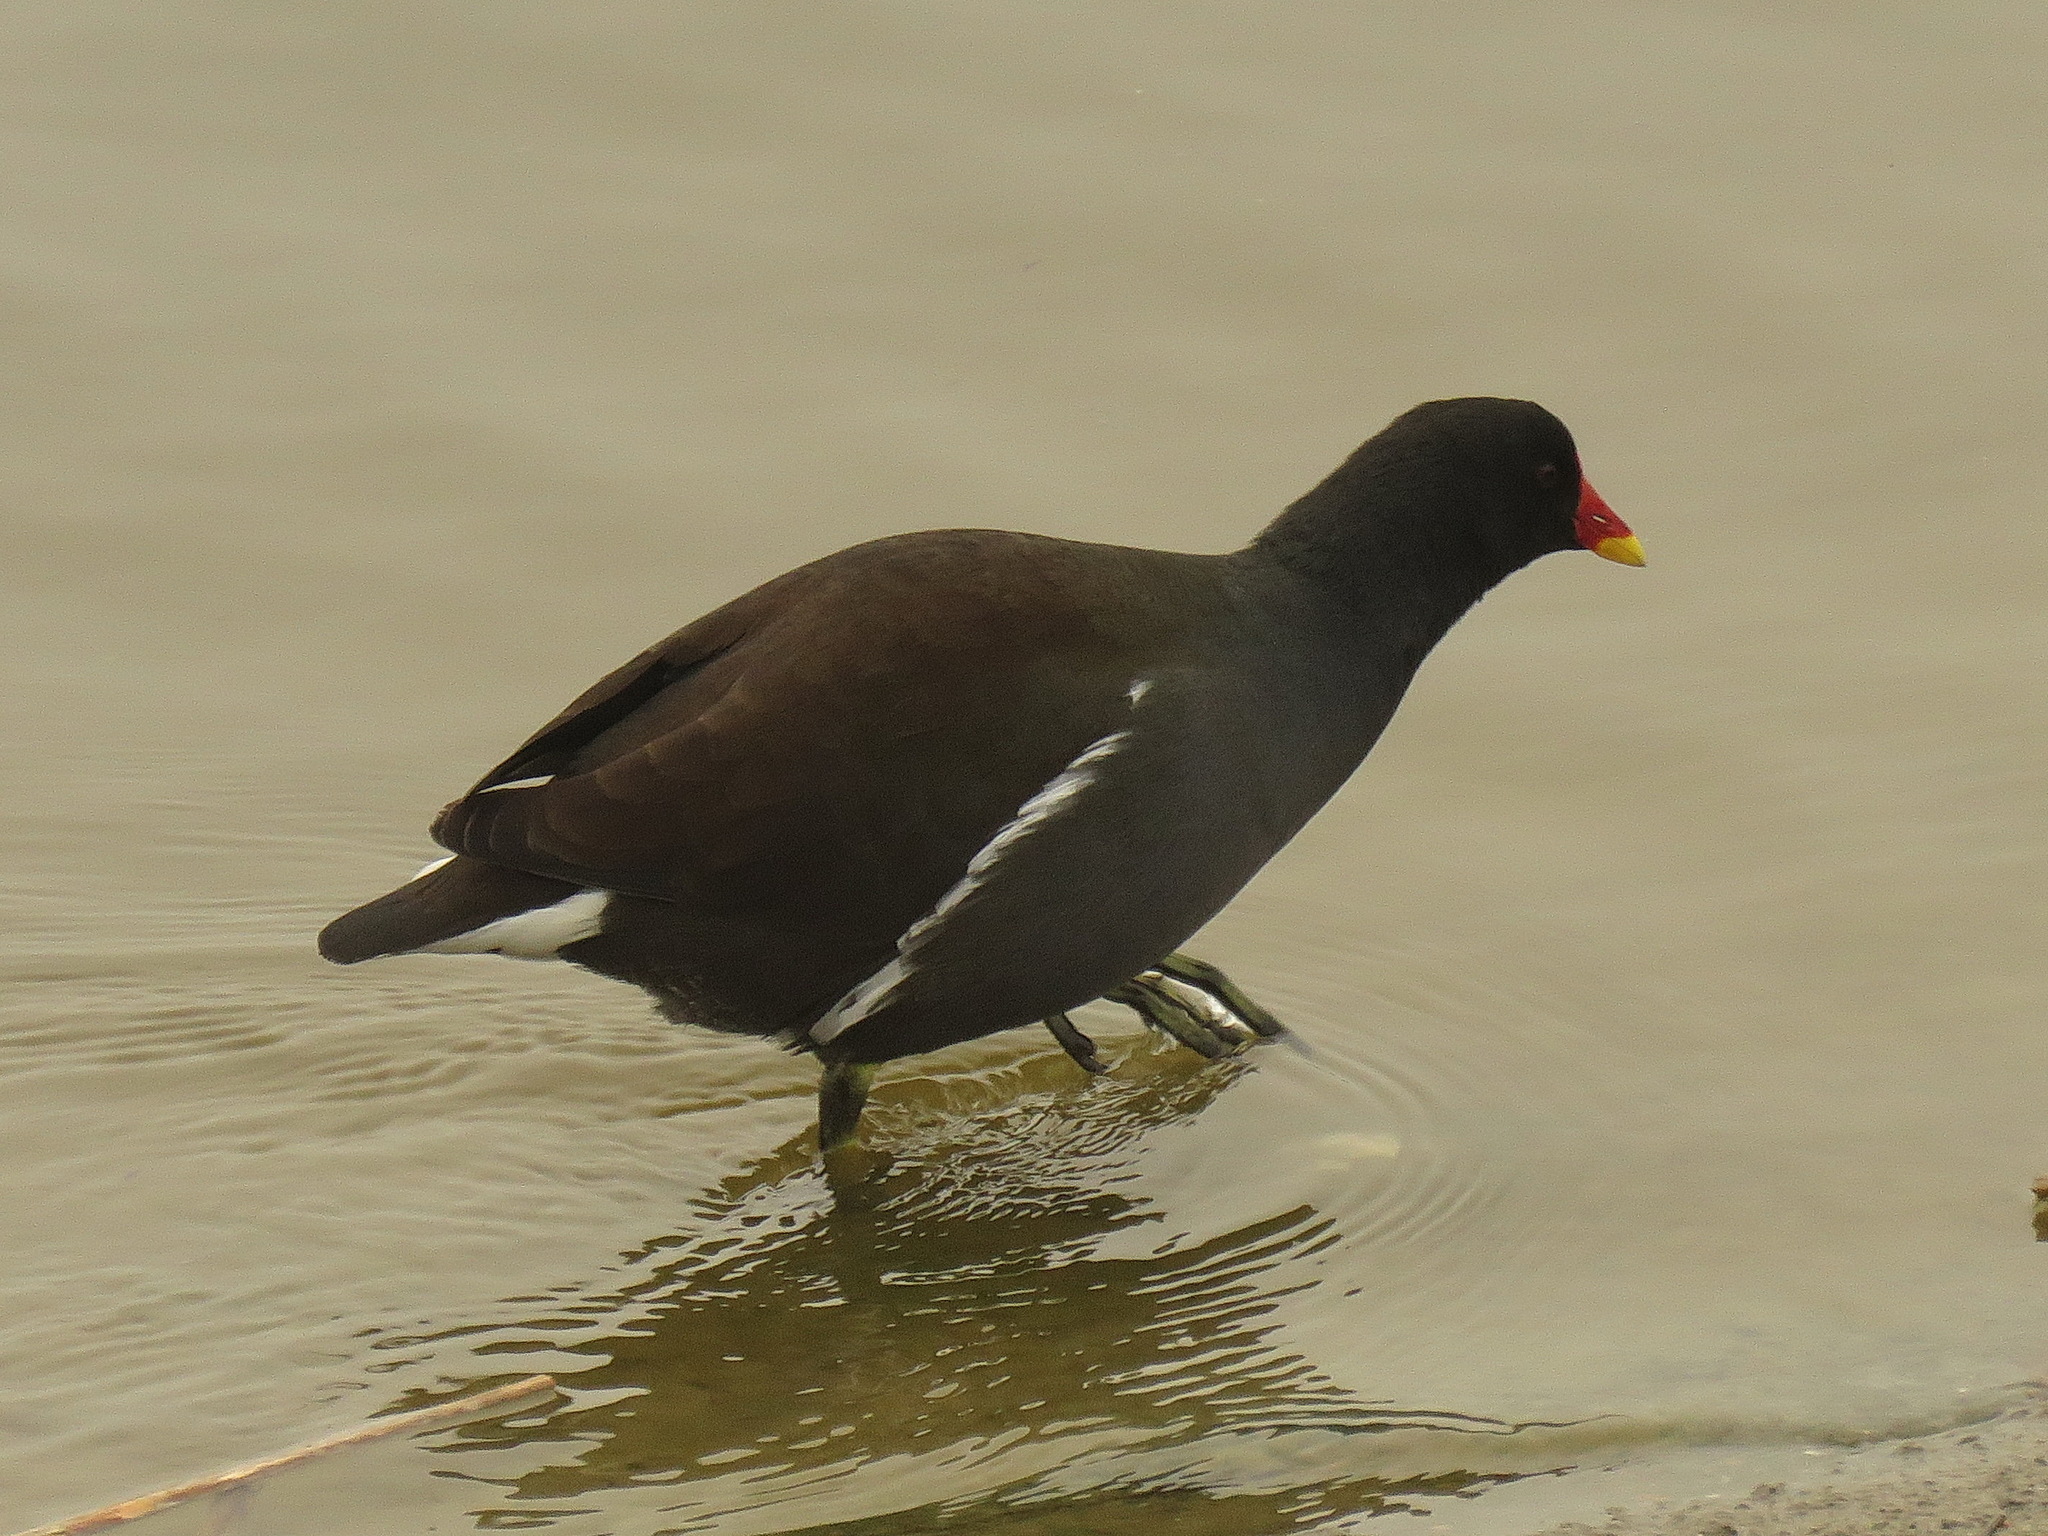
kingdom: Animalia
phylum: Chordata
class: Aves
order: Gruiformes
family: Rallidae
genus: Gallinula
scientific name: Gallinula chloropus
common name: Common moorhen
